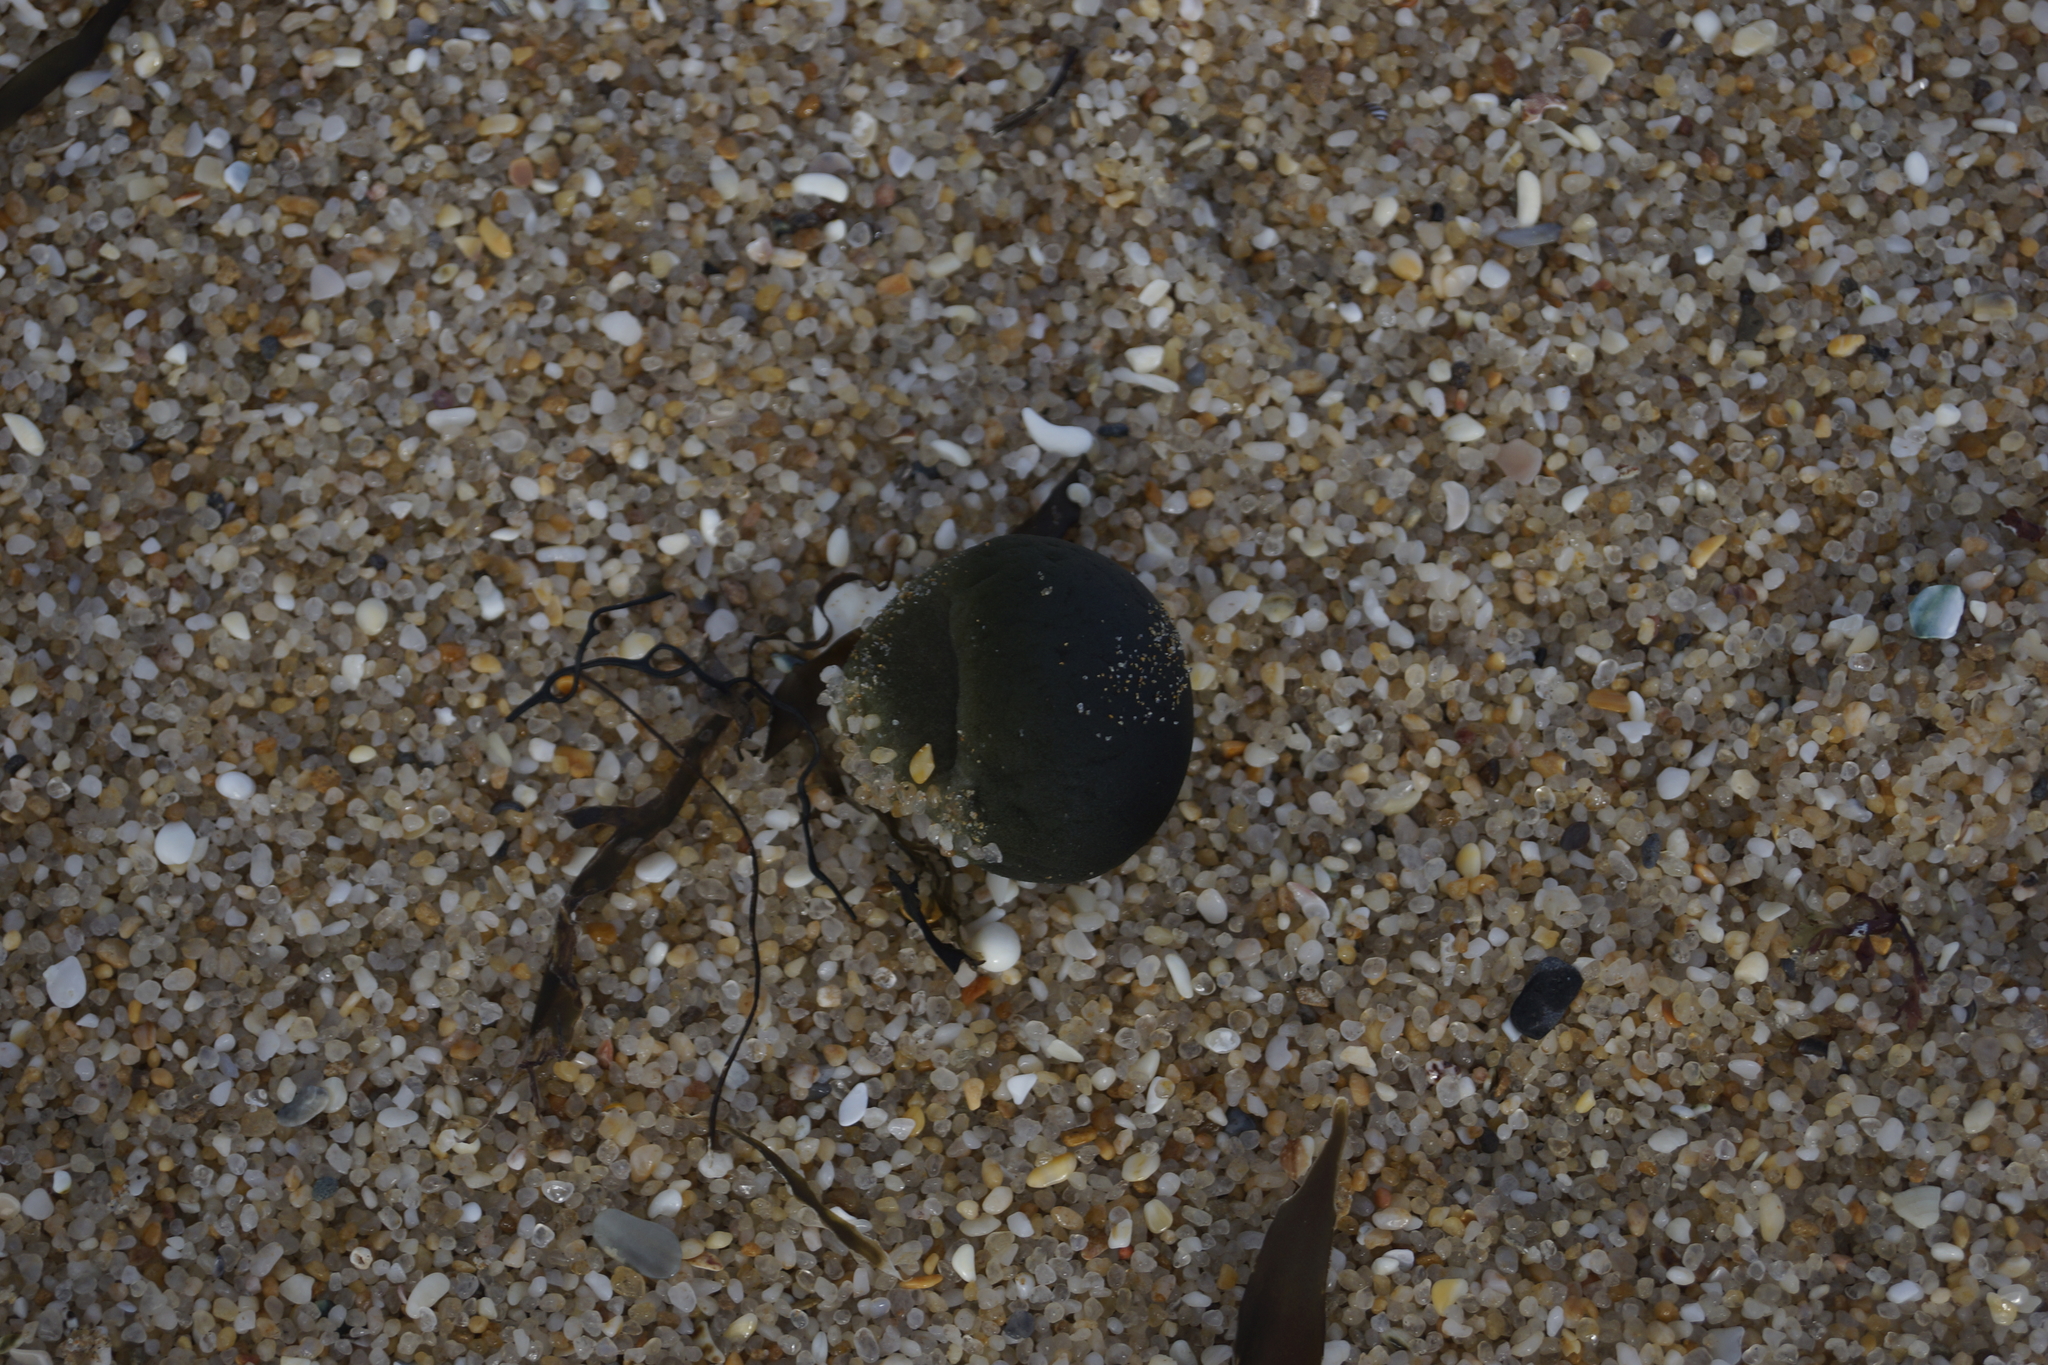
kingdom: Plantae
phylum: Chlorophyta
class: Ulvophyceae
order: Bryopsidales
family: Codiaceae
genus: Codium
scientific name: Codium
